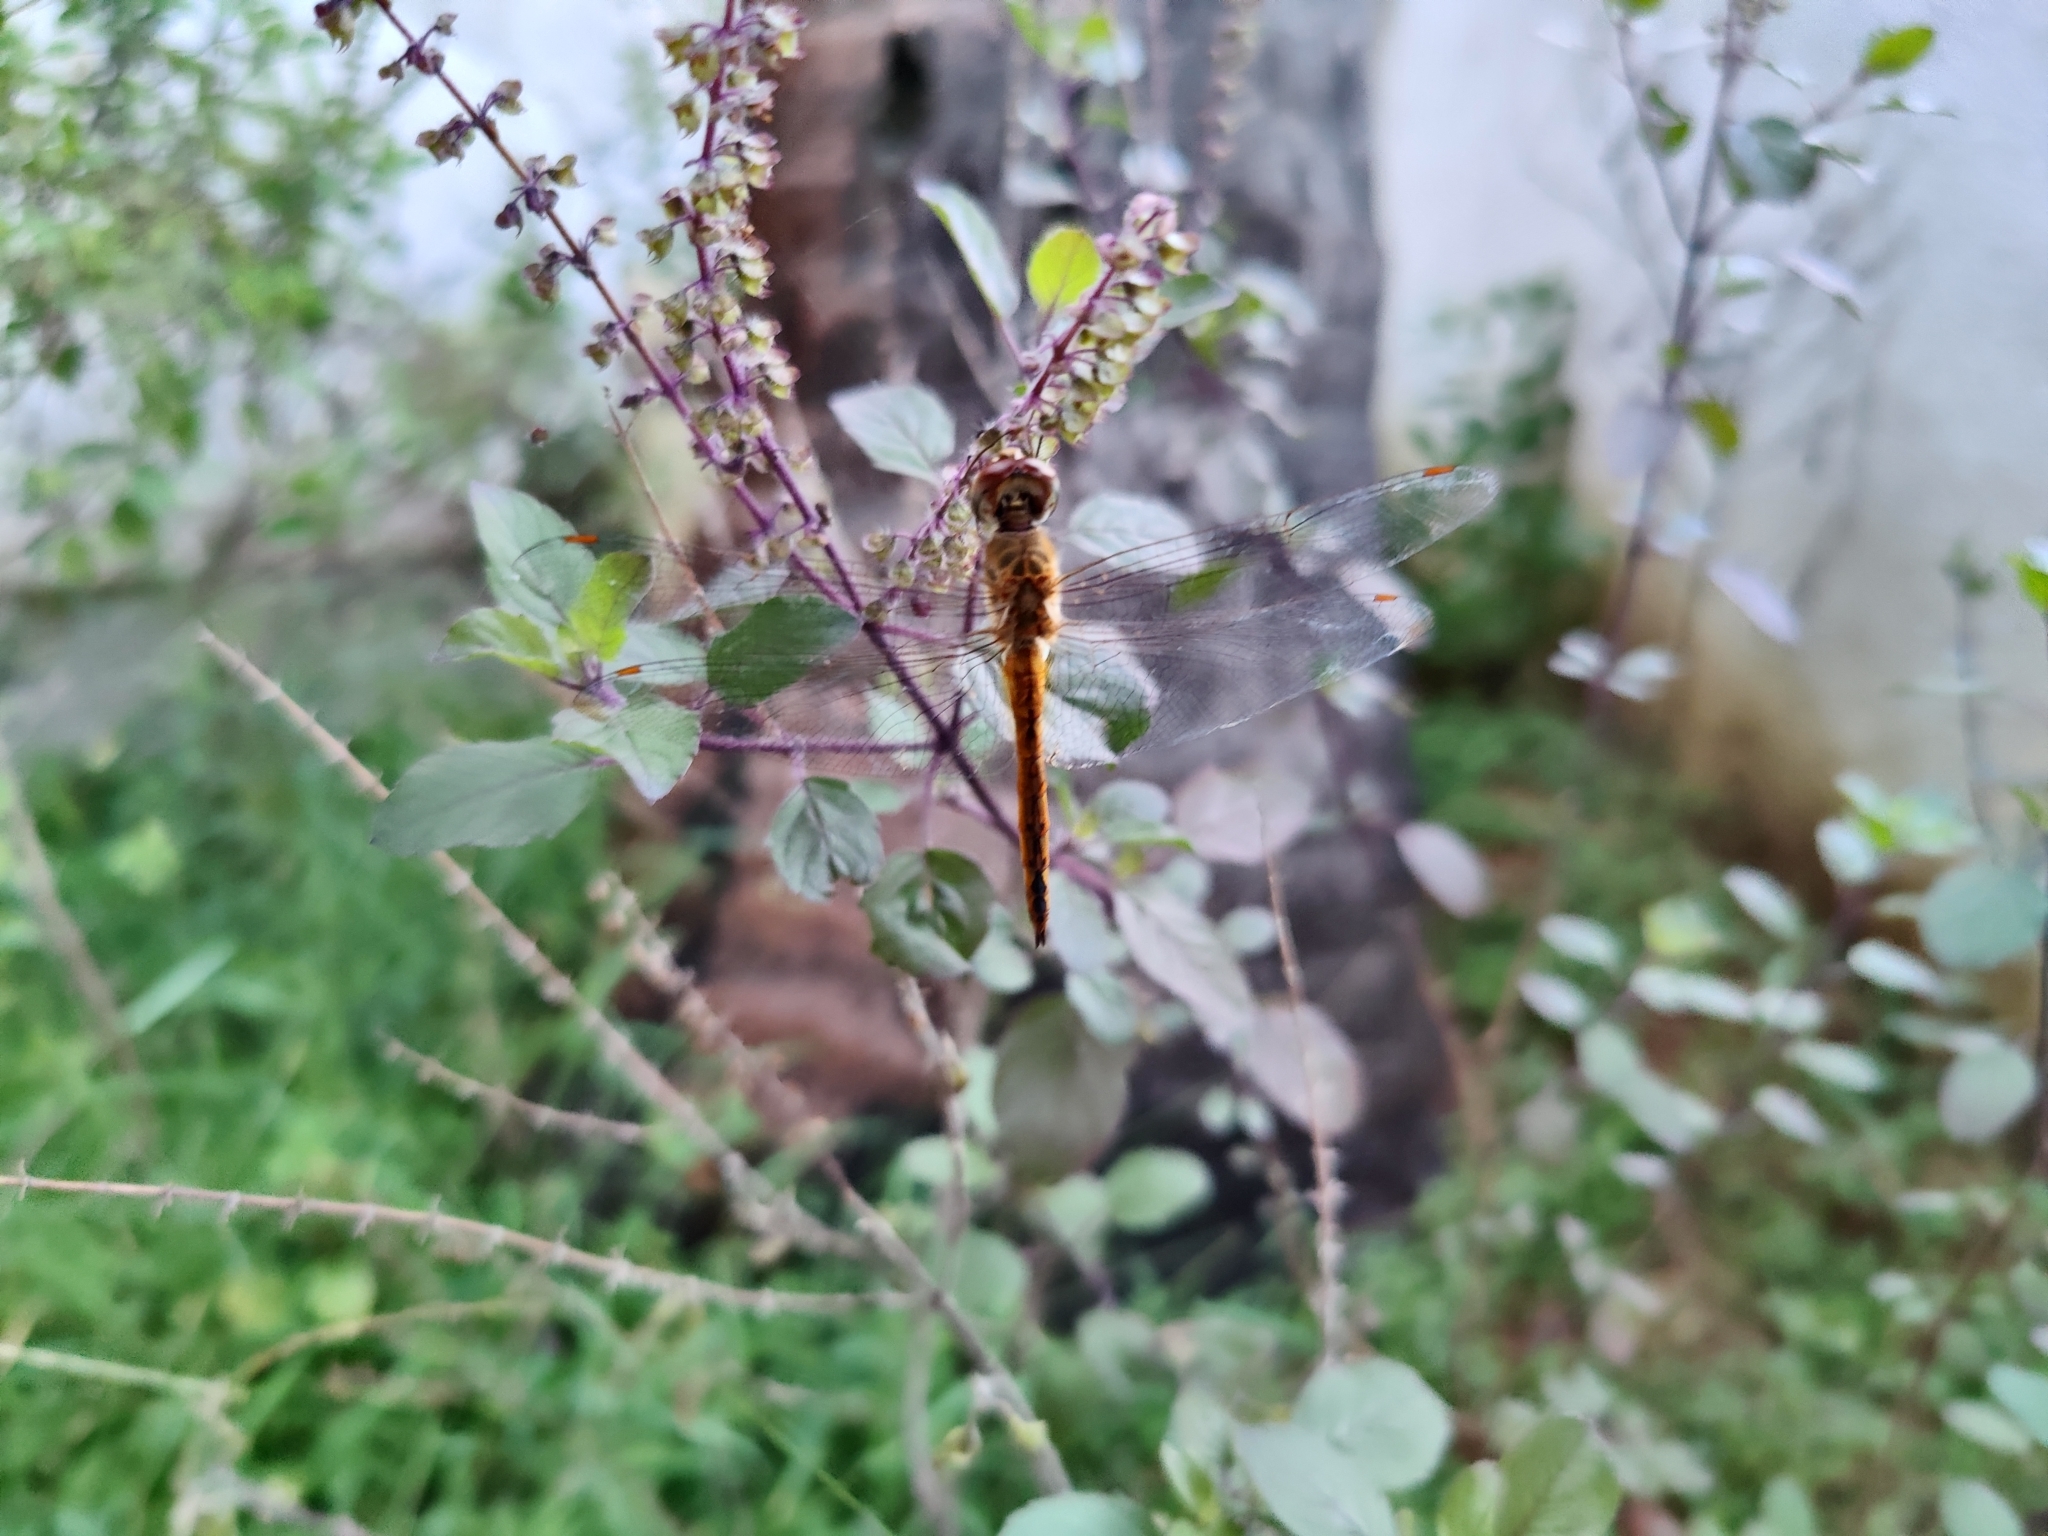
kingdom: Animalia
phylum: Arthropoda
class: Insecta
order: Odonata
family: Libellulidae
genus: Pantala
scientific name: Pantala flavescens
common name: Wandering glider
